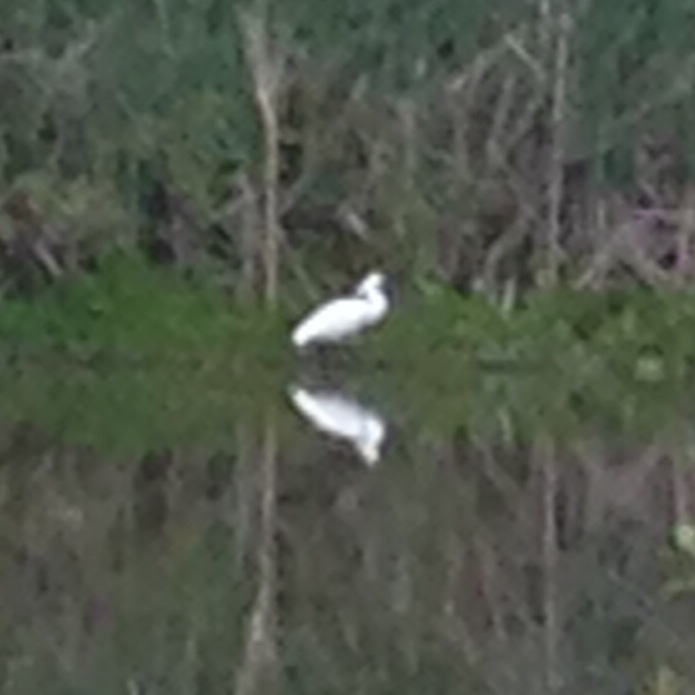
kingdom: Animalia
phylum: Chordata
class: Aves
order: Pelecaniformes
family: Threskiornithidae
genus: Platalea
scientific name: Platalea regia
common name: Royal spoonbill
